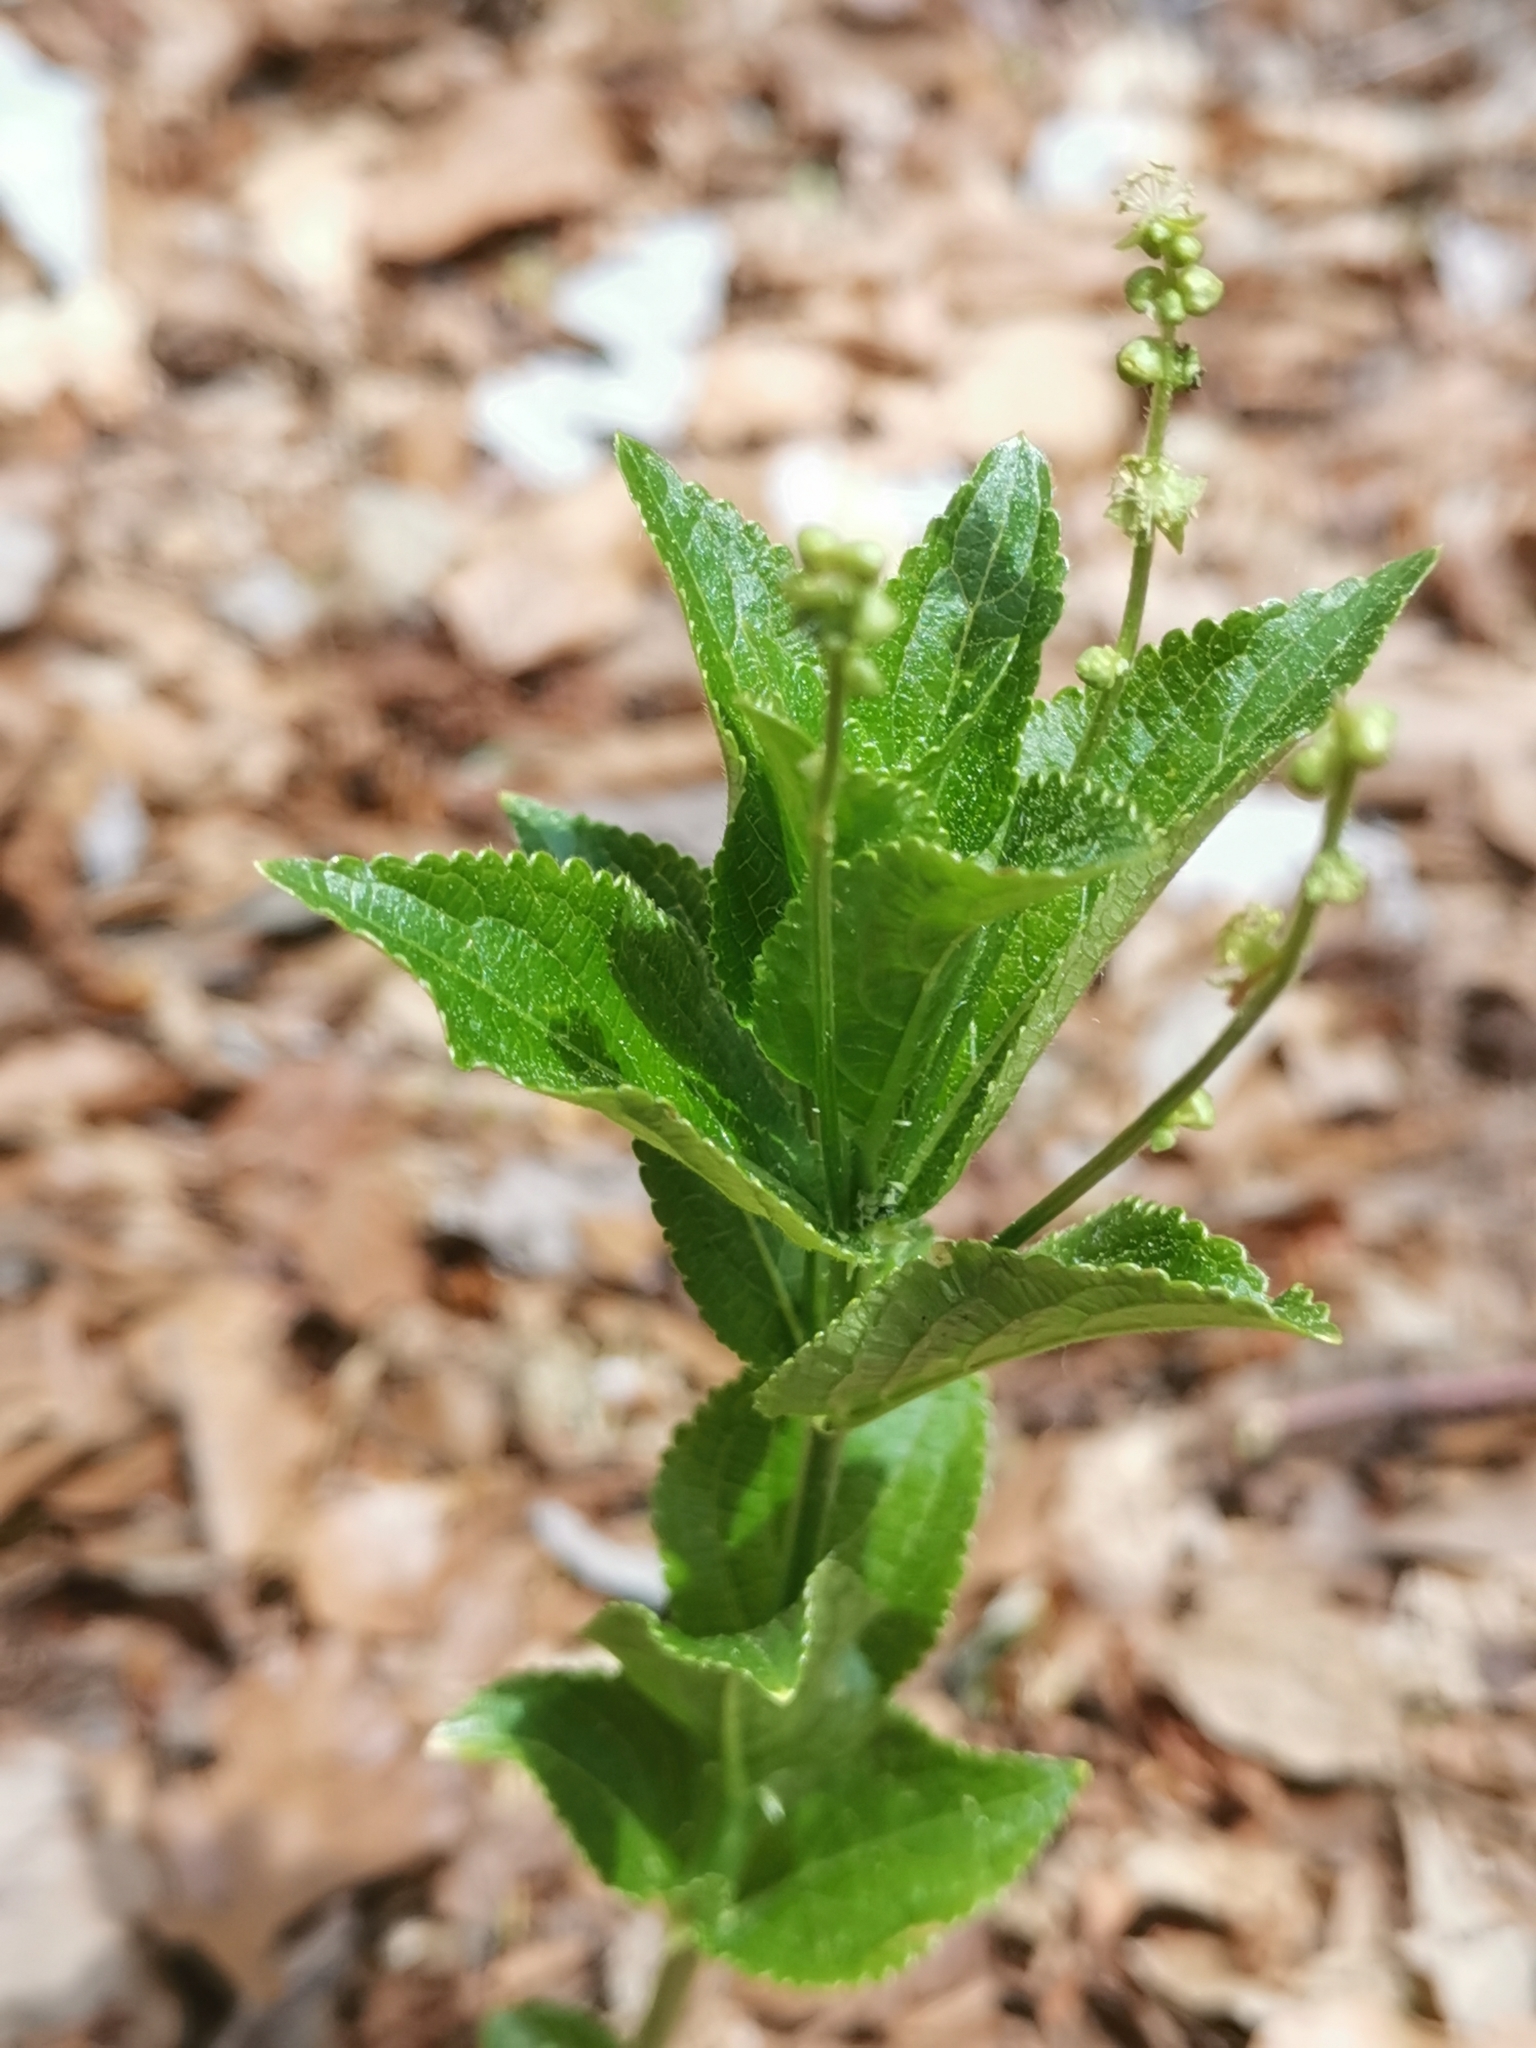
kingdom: Plantae
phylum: Tracheophyta
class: Magnoliopsida
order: Malpighiales
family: Euphorbiaceae
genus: Mercurialis
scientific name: Mercurialis ovata
